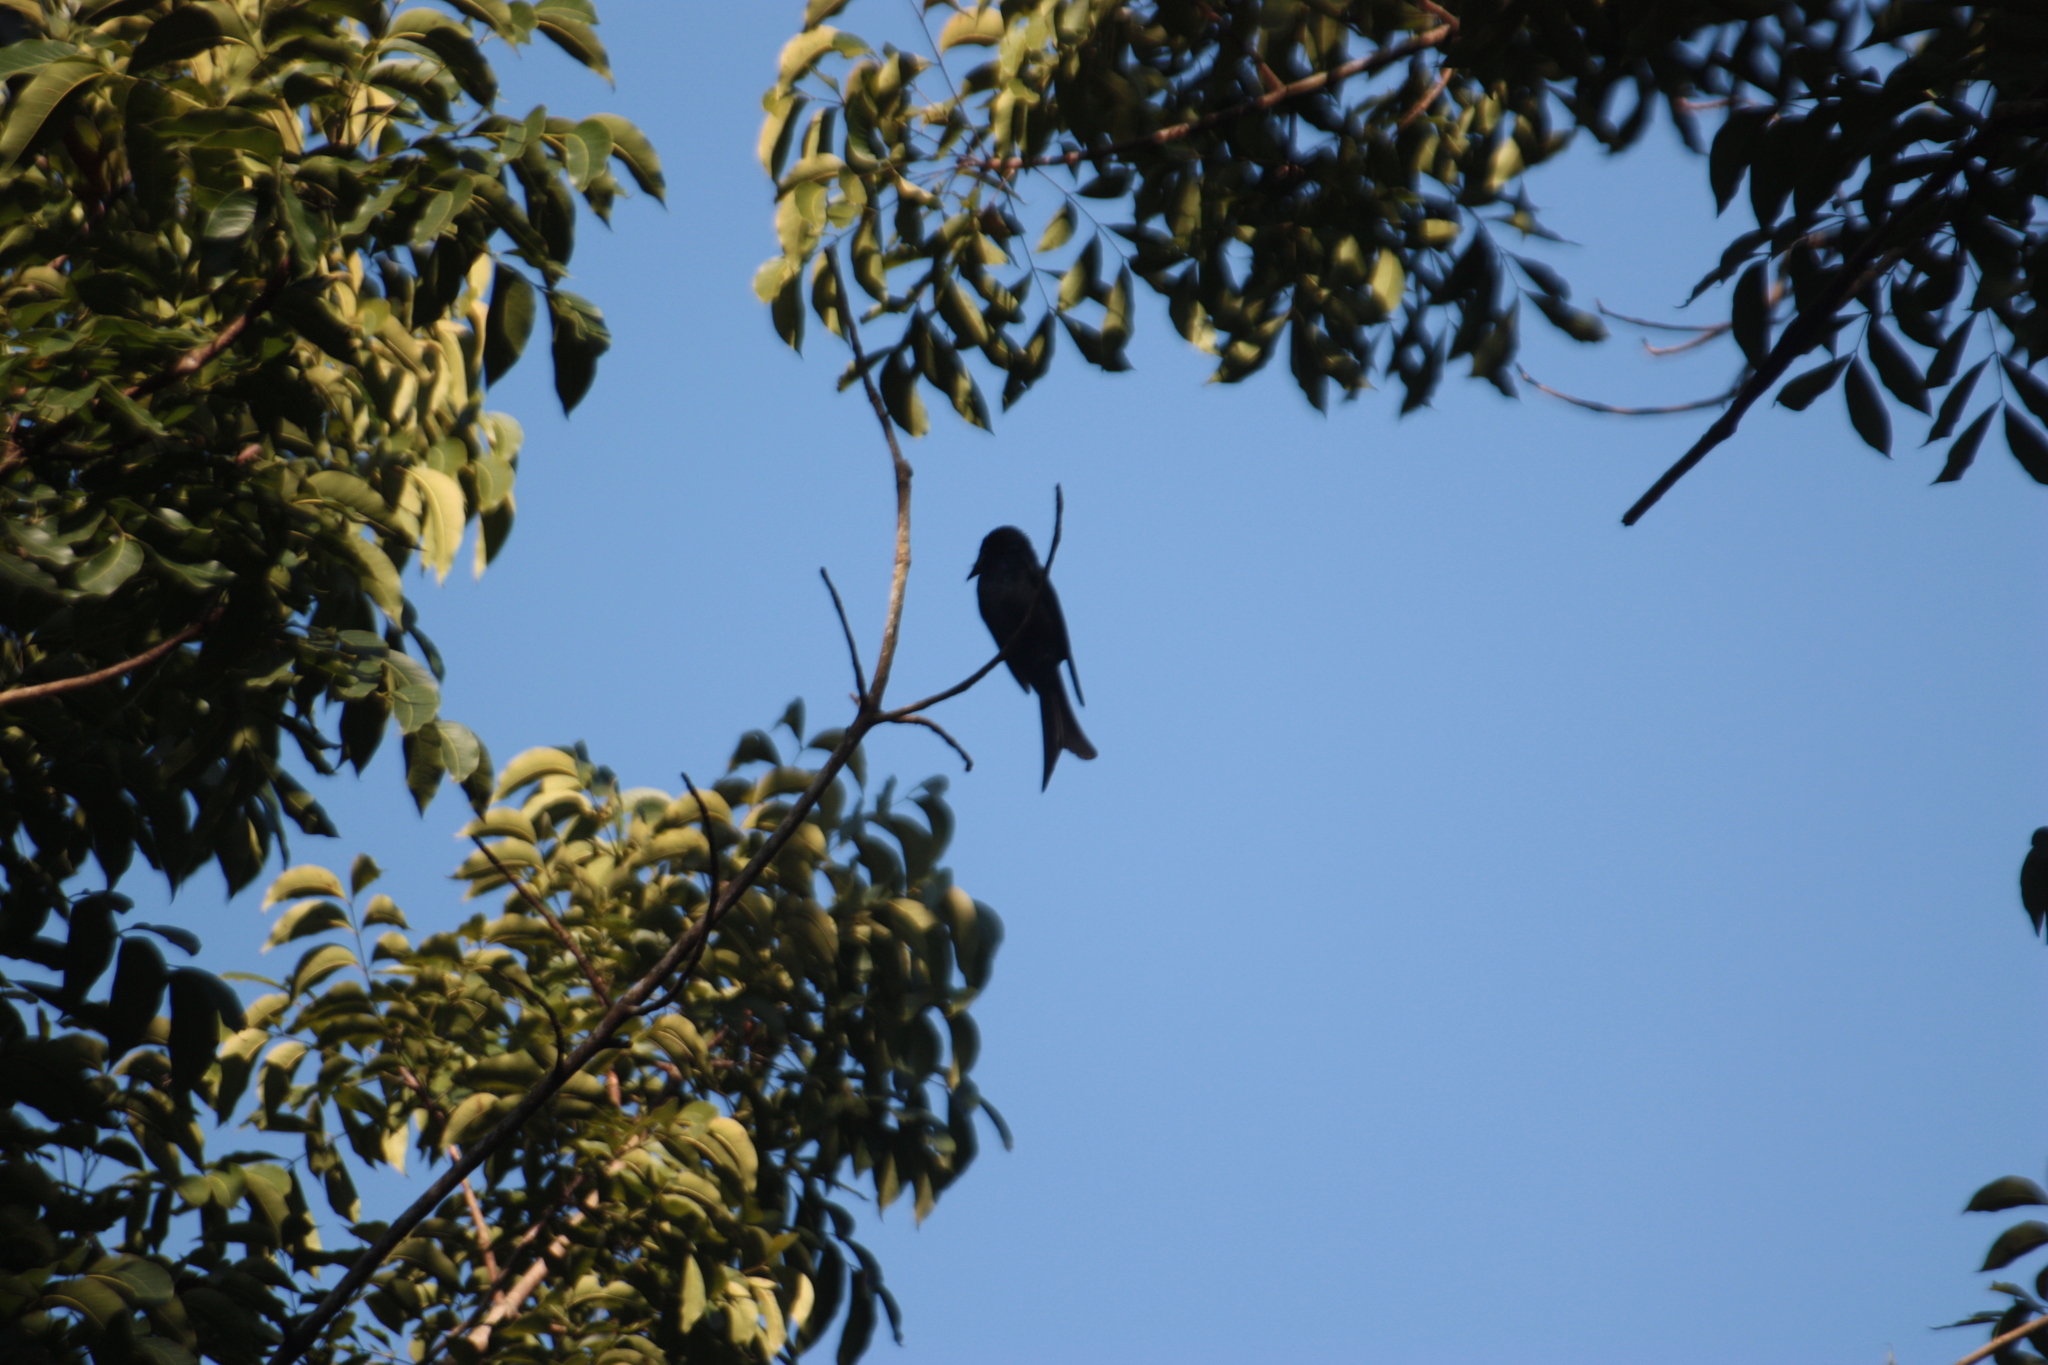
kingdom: Animalia
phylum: Chordata
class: Aves
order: Passeriformes
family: Dicruridae
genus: Dicrurus
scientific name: Dicrurus aeneus
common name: Bronzed drongo
